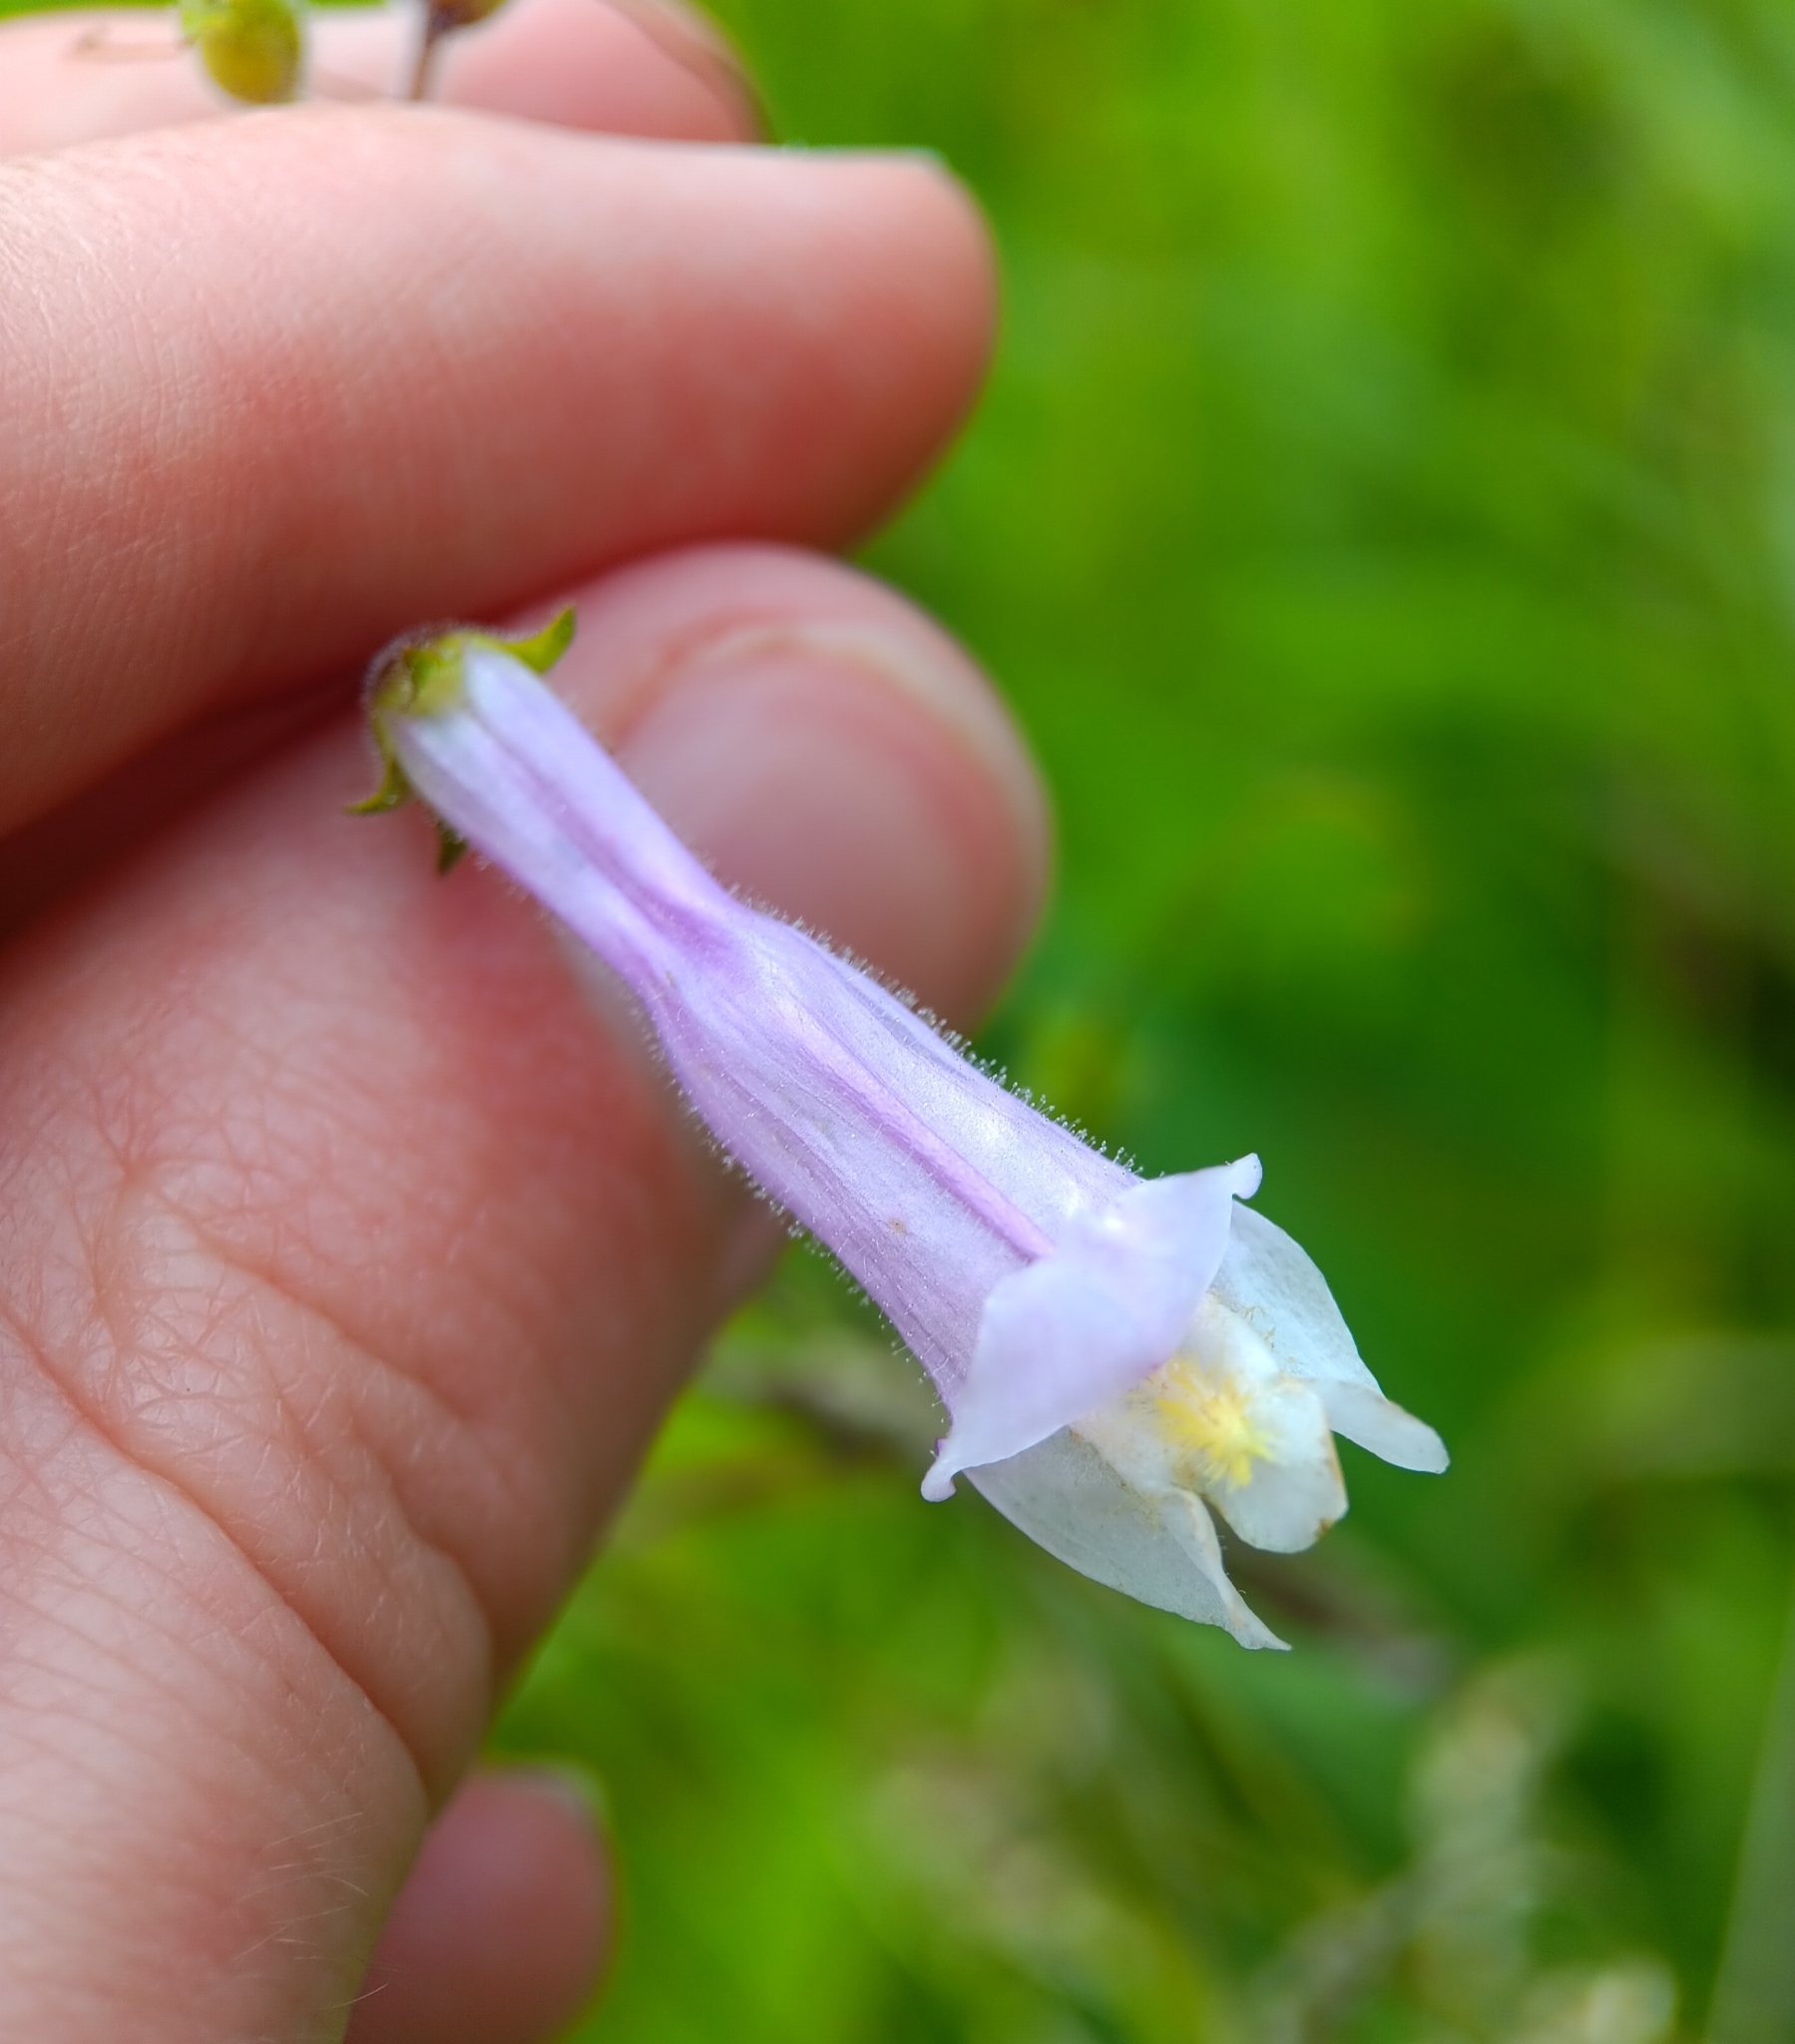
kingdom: Plantae
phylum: Tracheophyta
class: Magnoliopsida
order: Lamiales
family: Plantaginaceae
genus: Penstemon
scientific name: Penstemon hirsutus
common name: Hairy beardtongue
